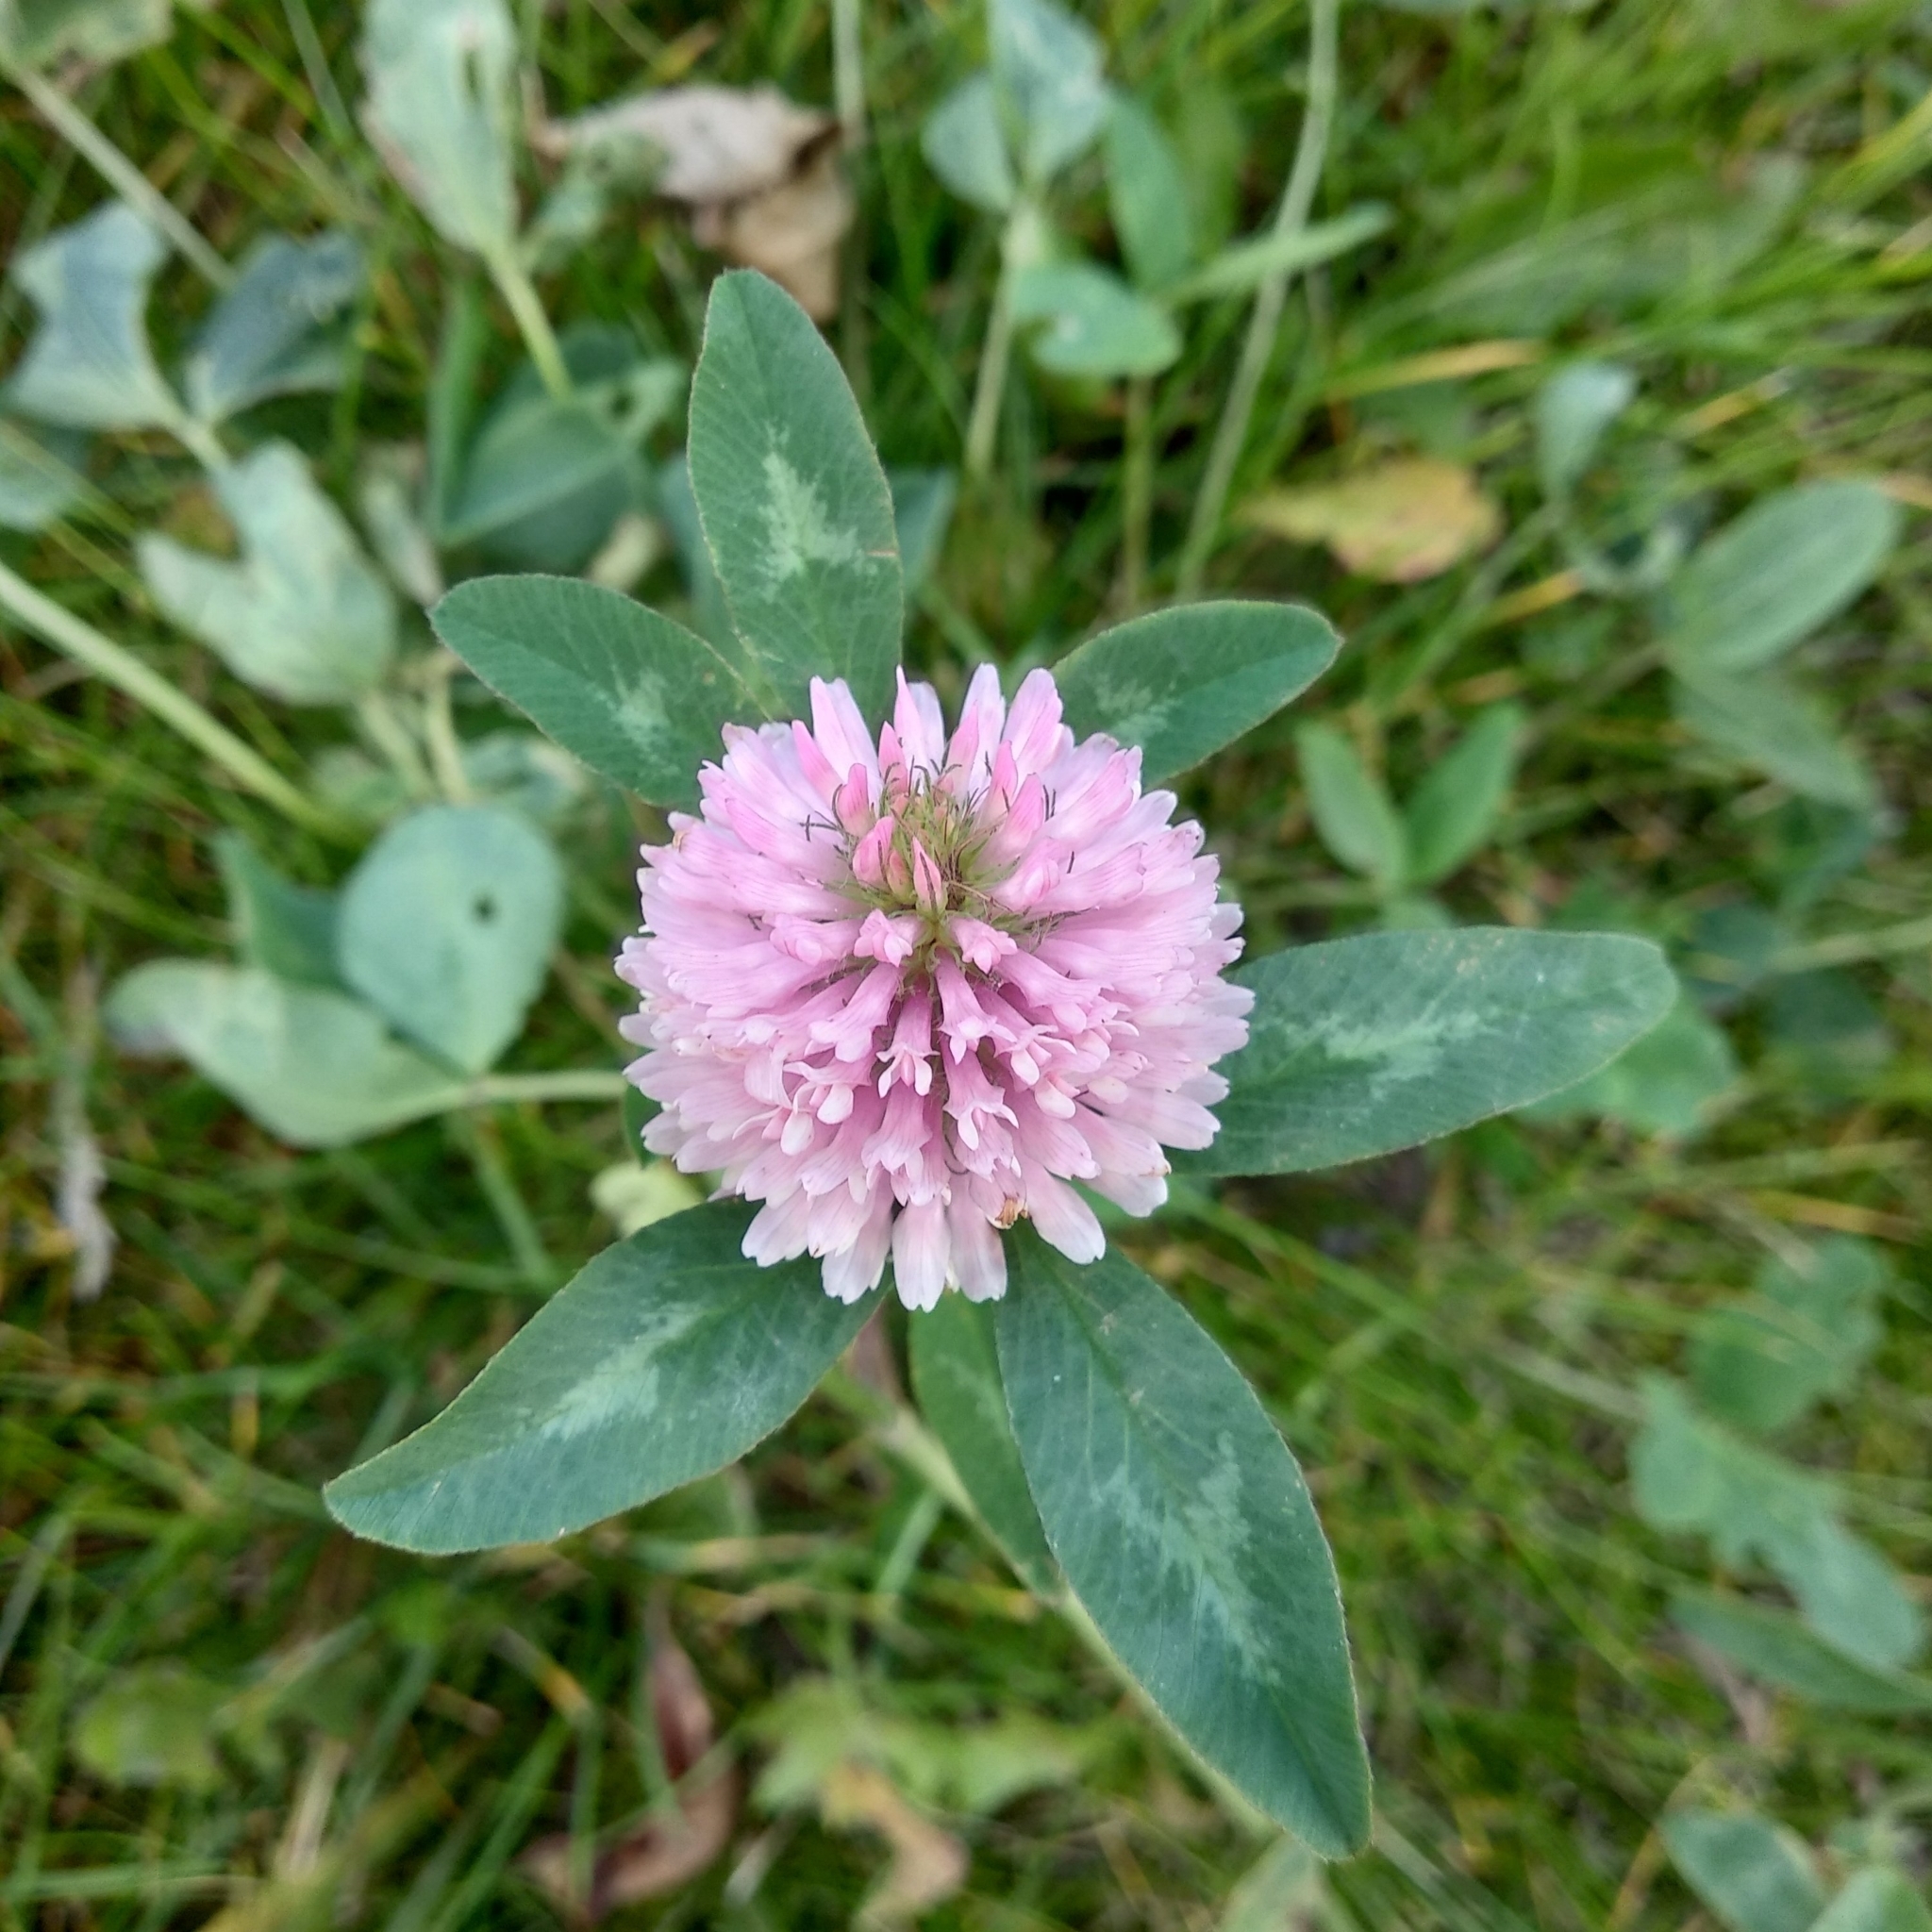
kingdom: Plantae
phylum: Tracheophyta
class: Magnoliopsida
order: Fabales
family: Fabaceae
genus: Trifolium
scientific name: Trifolium pratense
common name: Red clover
